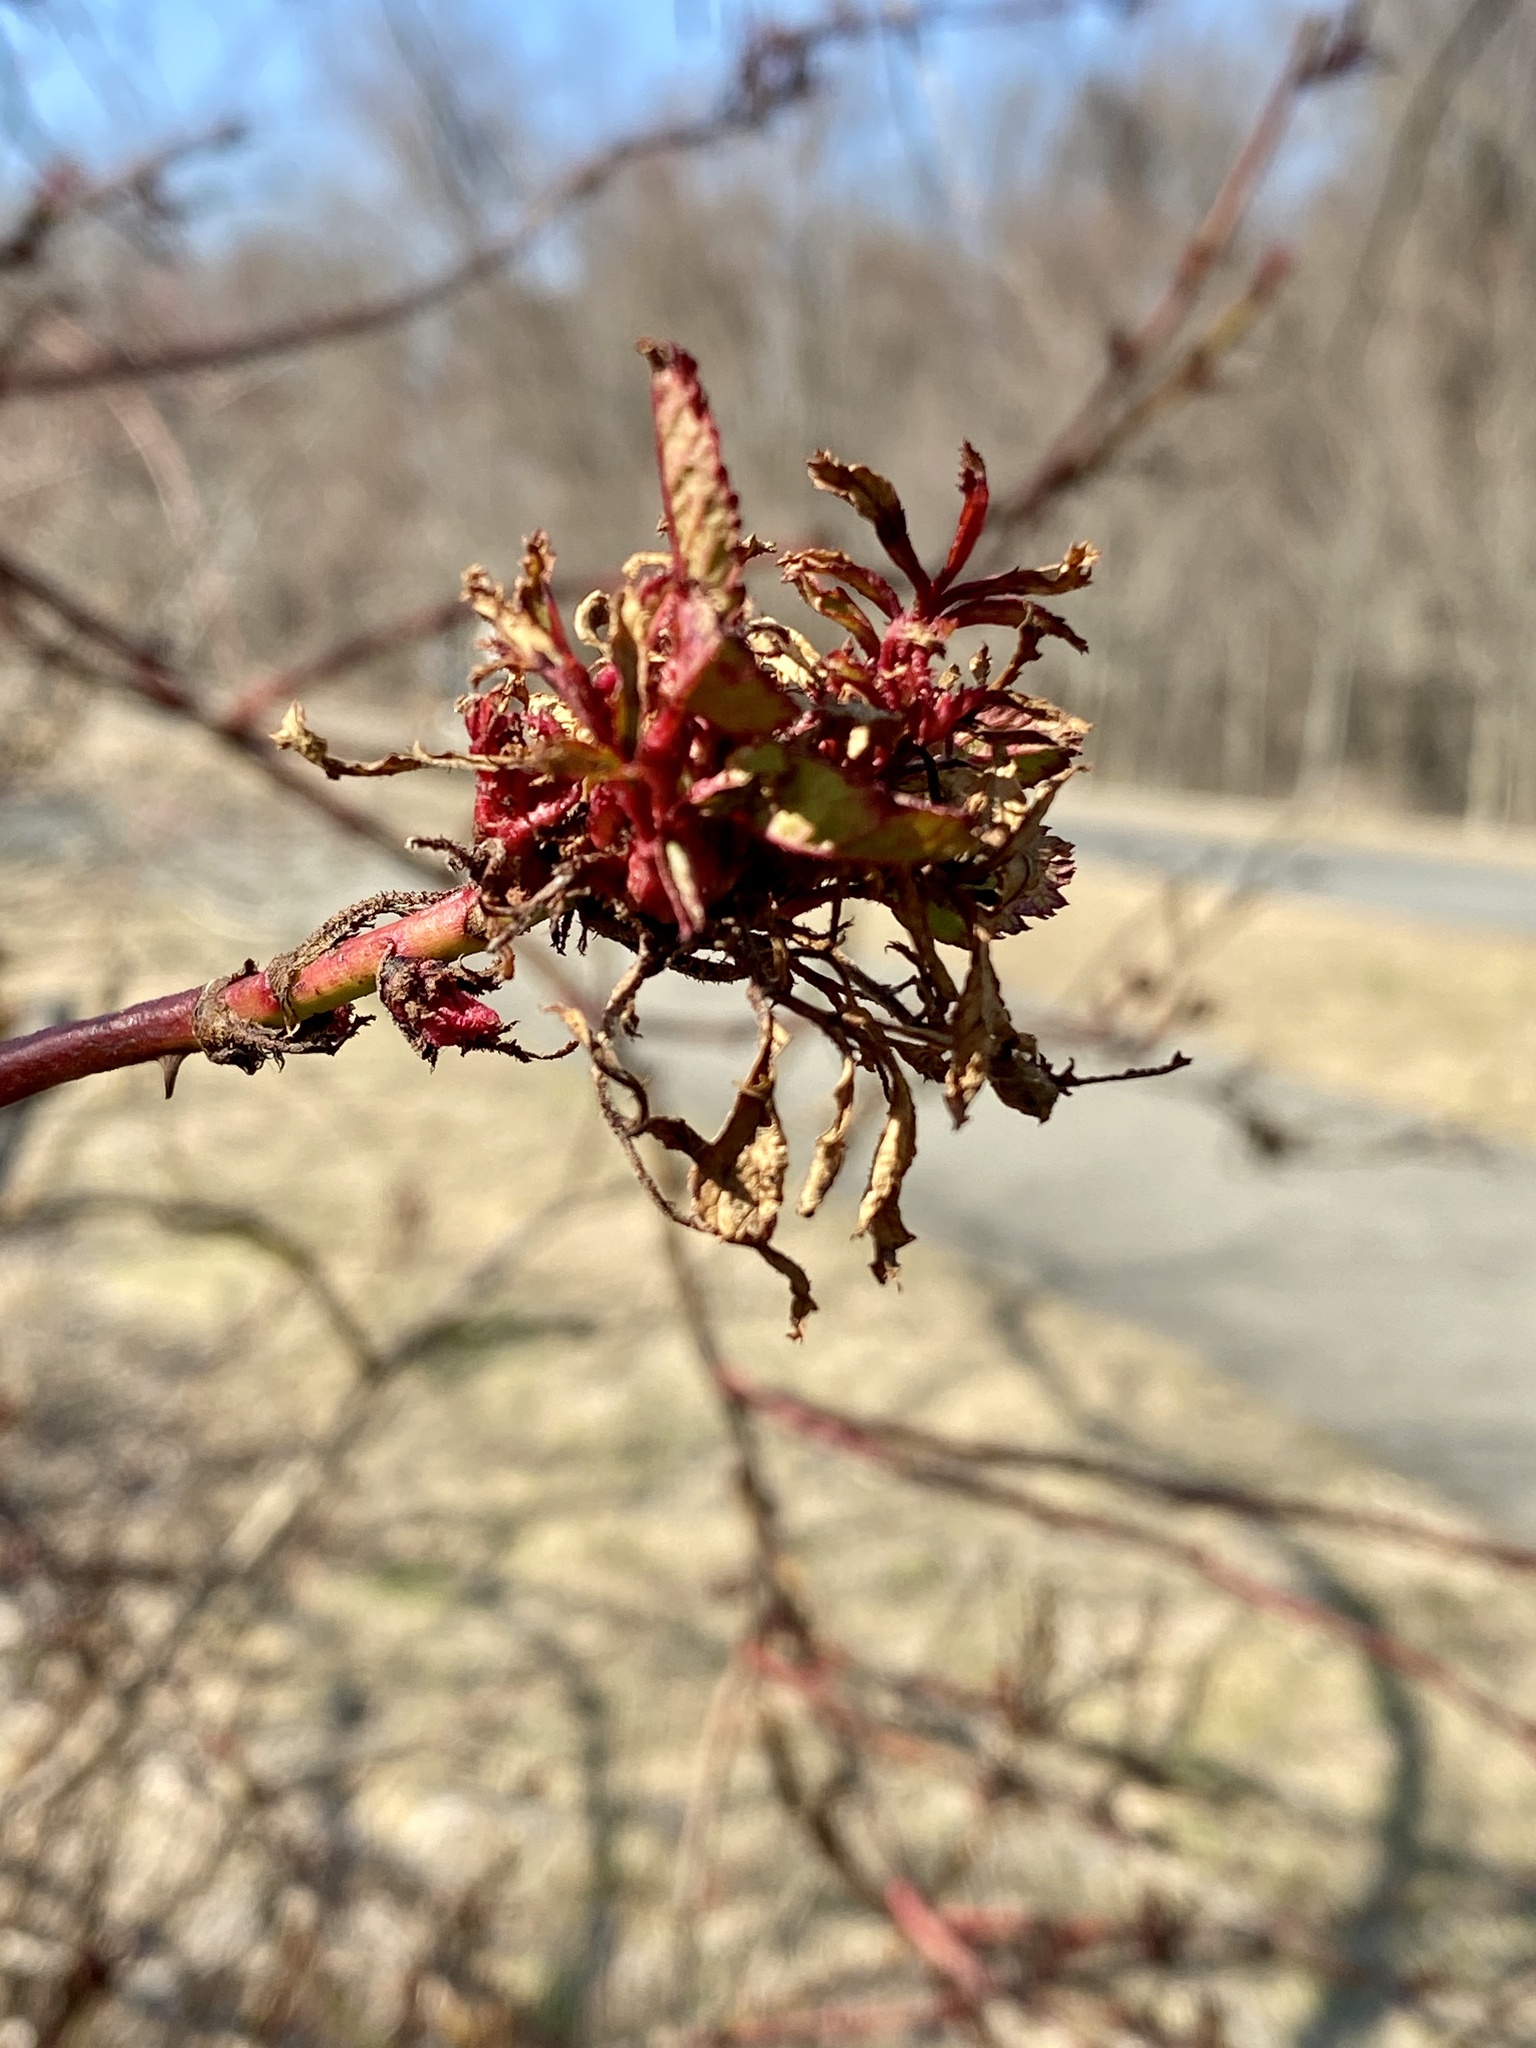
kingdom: Viruses
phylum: Negarnaviricota
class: Ellioviricetes
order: Bunyavirales
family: Fimoviridae
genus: Emaravirus
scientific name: Emaravirus rosae
